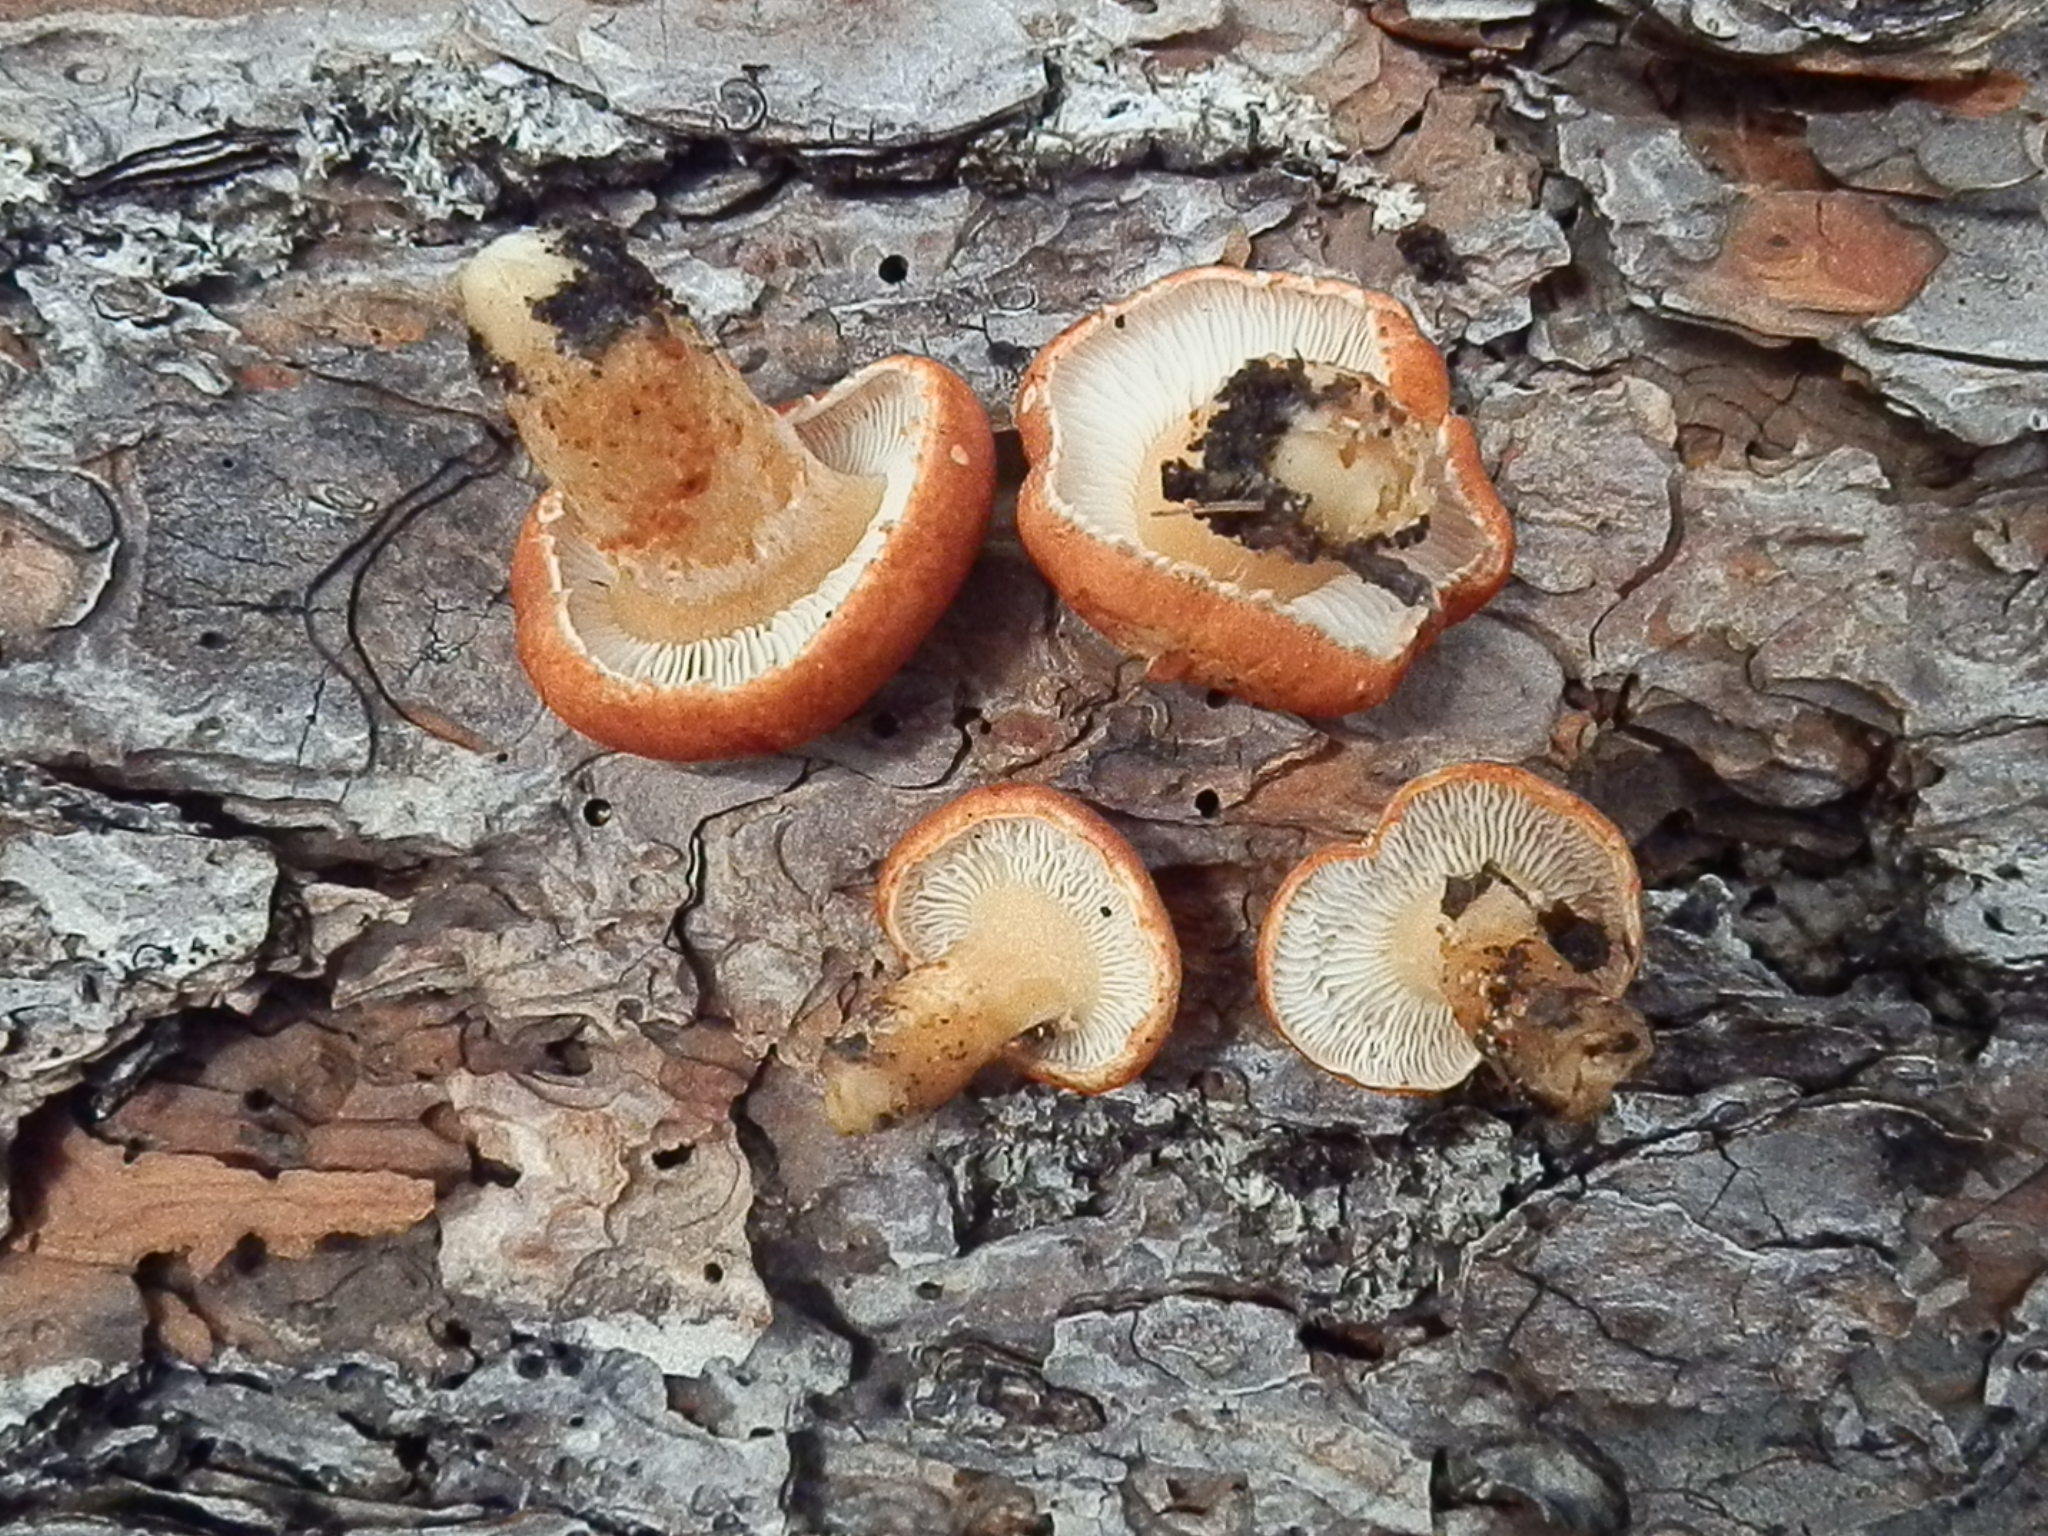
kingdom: Fungi
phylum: Basidiomycota
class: Agaricomycetes
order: Agaricales
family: Agaricaceae
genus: Cystodermella
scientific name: Cystodermella cinnabarina
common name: Cinnabar powdercap
